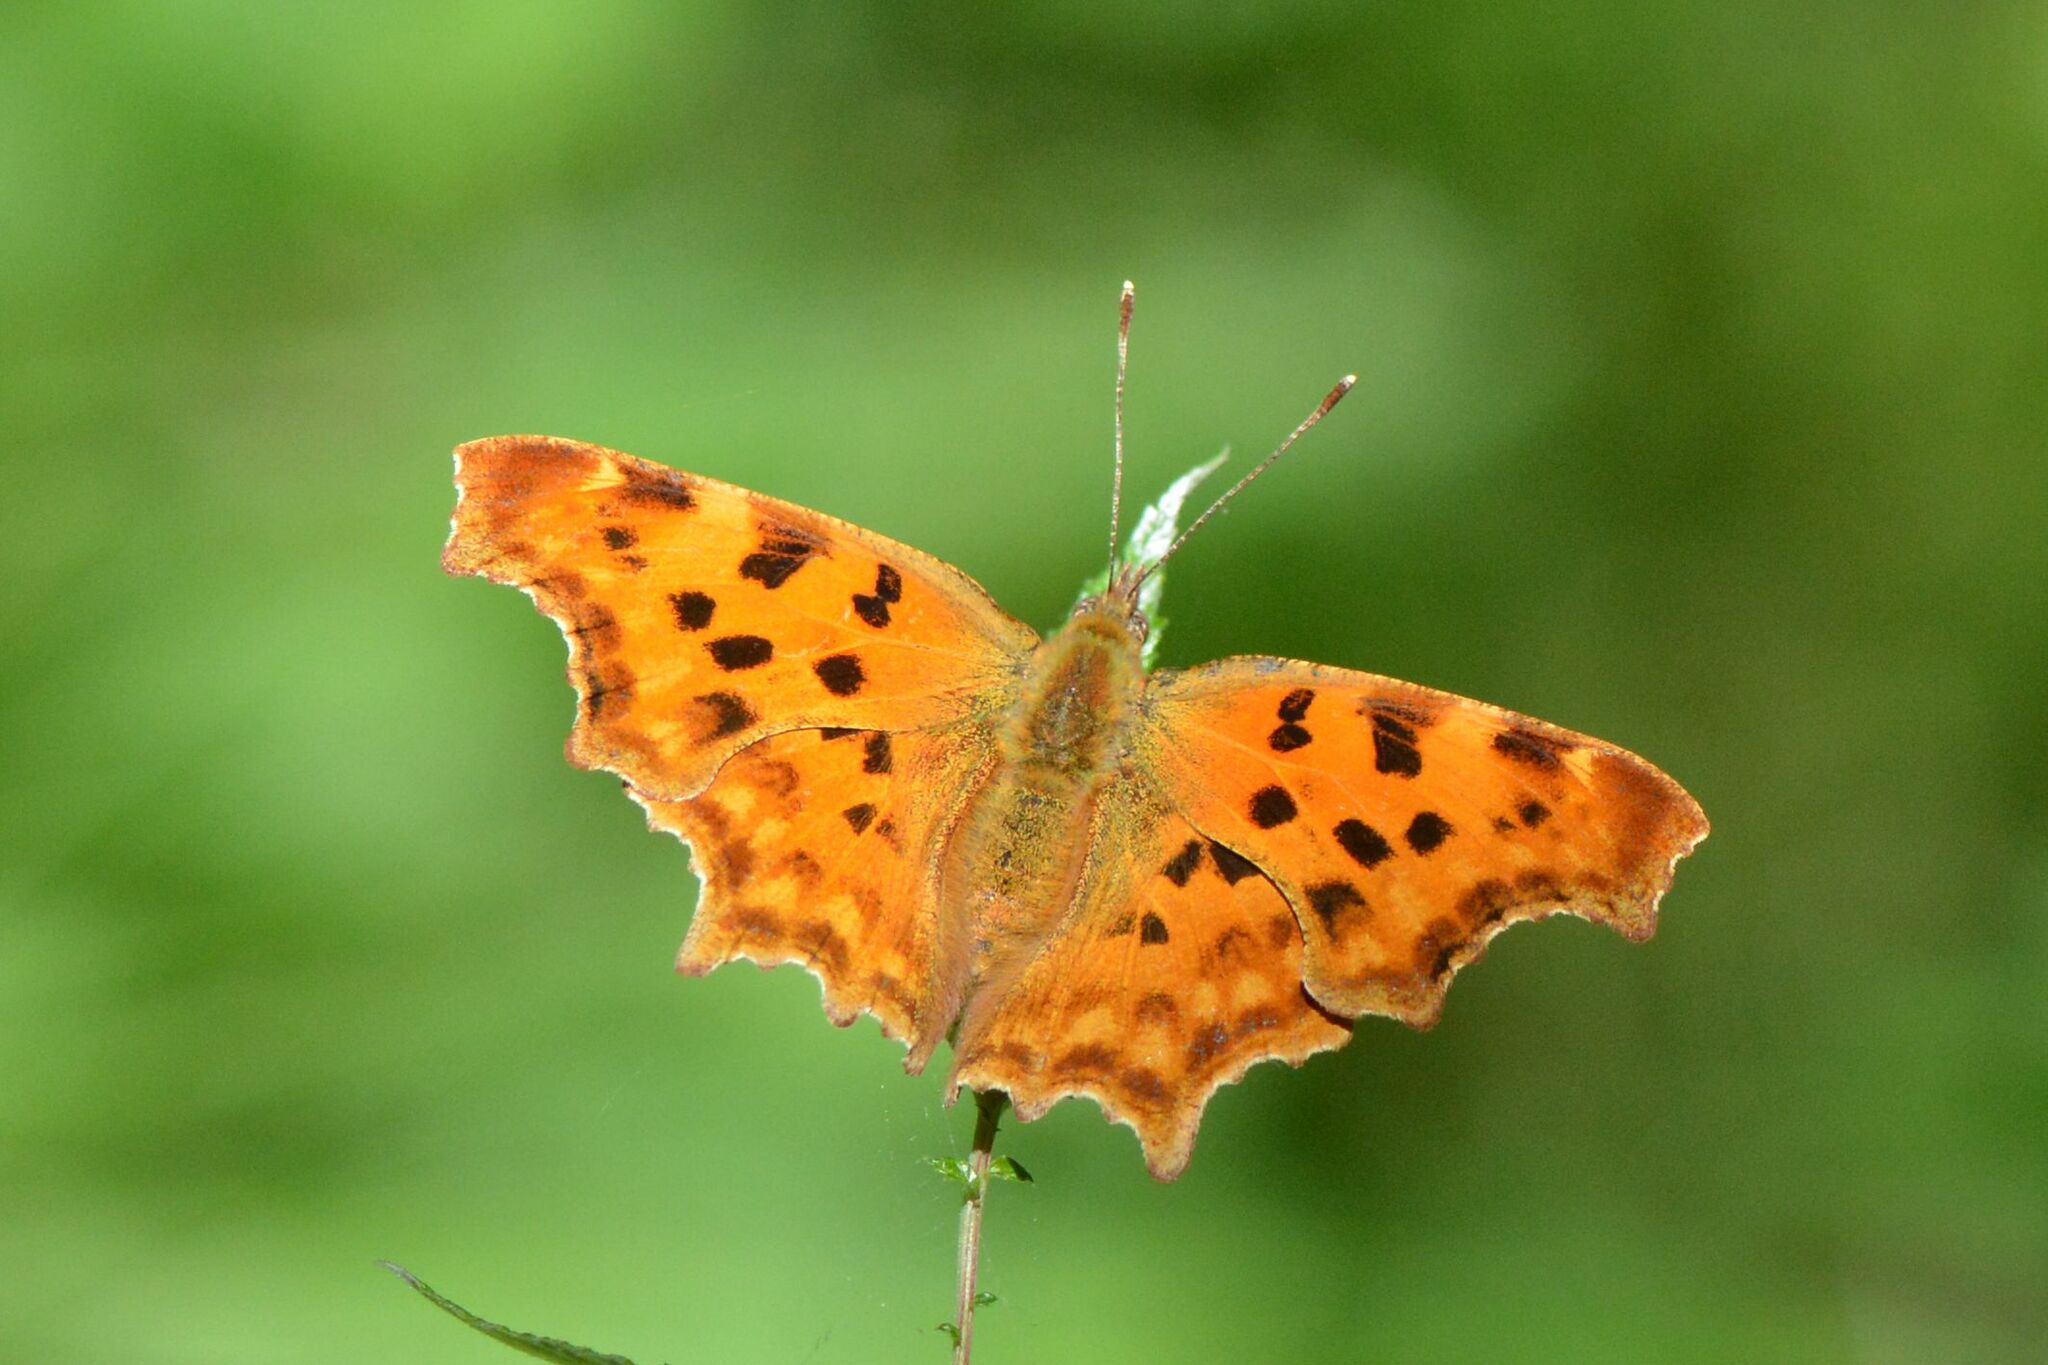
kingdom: Animalia
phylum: Arthropoda
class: Insecta
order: Lepidoptera
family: Nymphalidae
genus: Polygonia
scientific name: Polygonia c-album
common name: Comma
